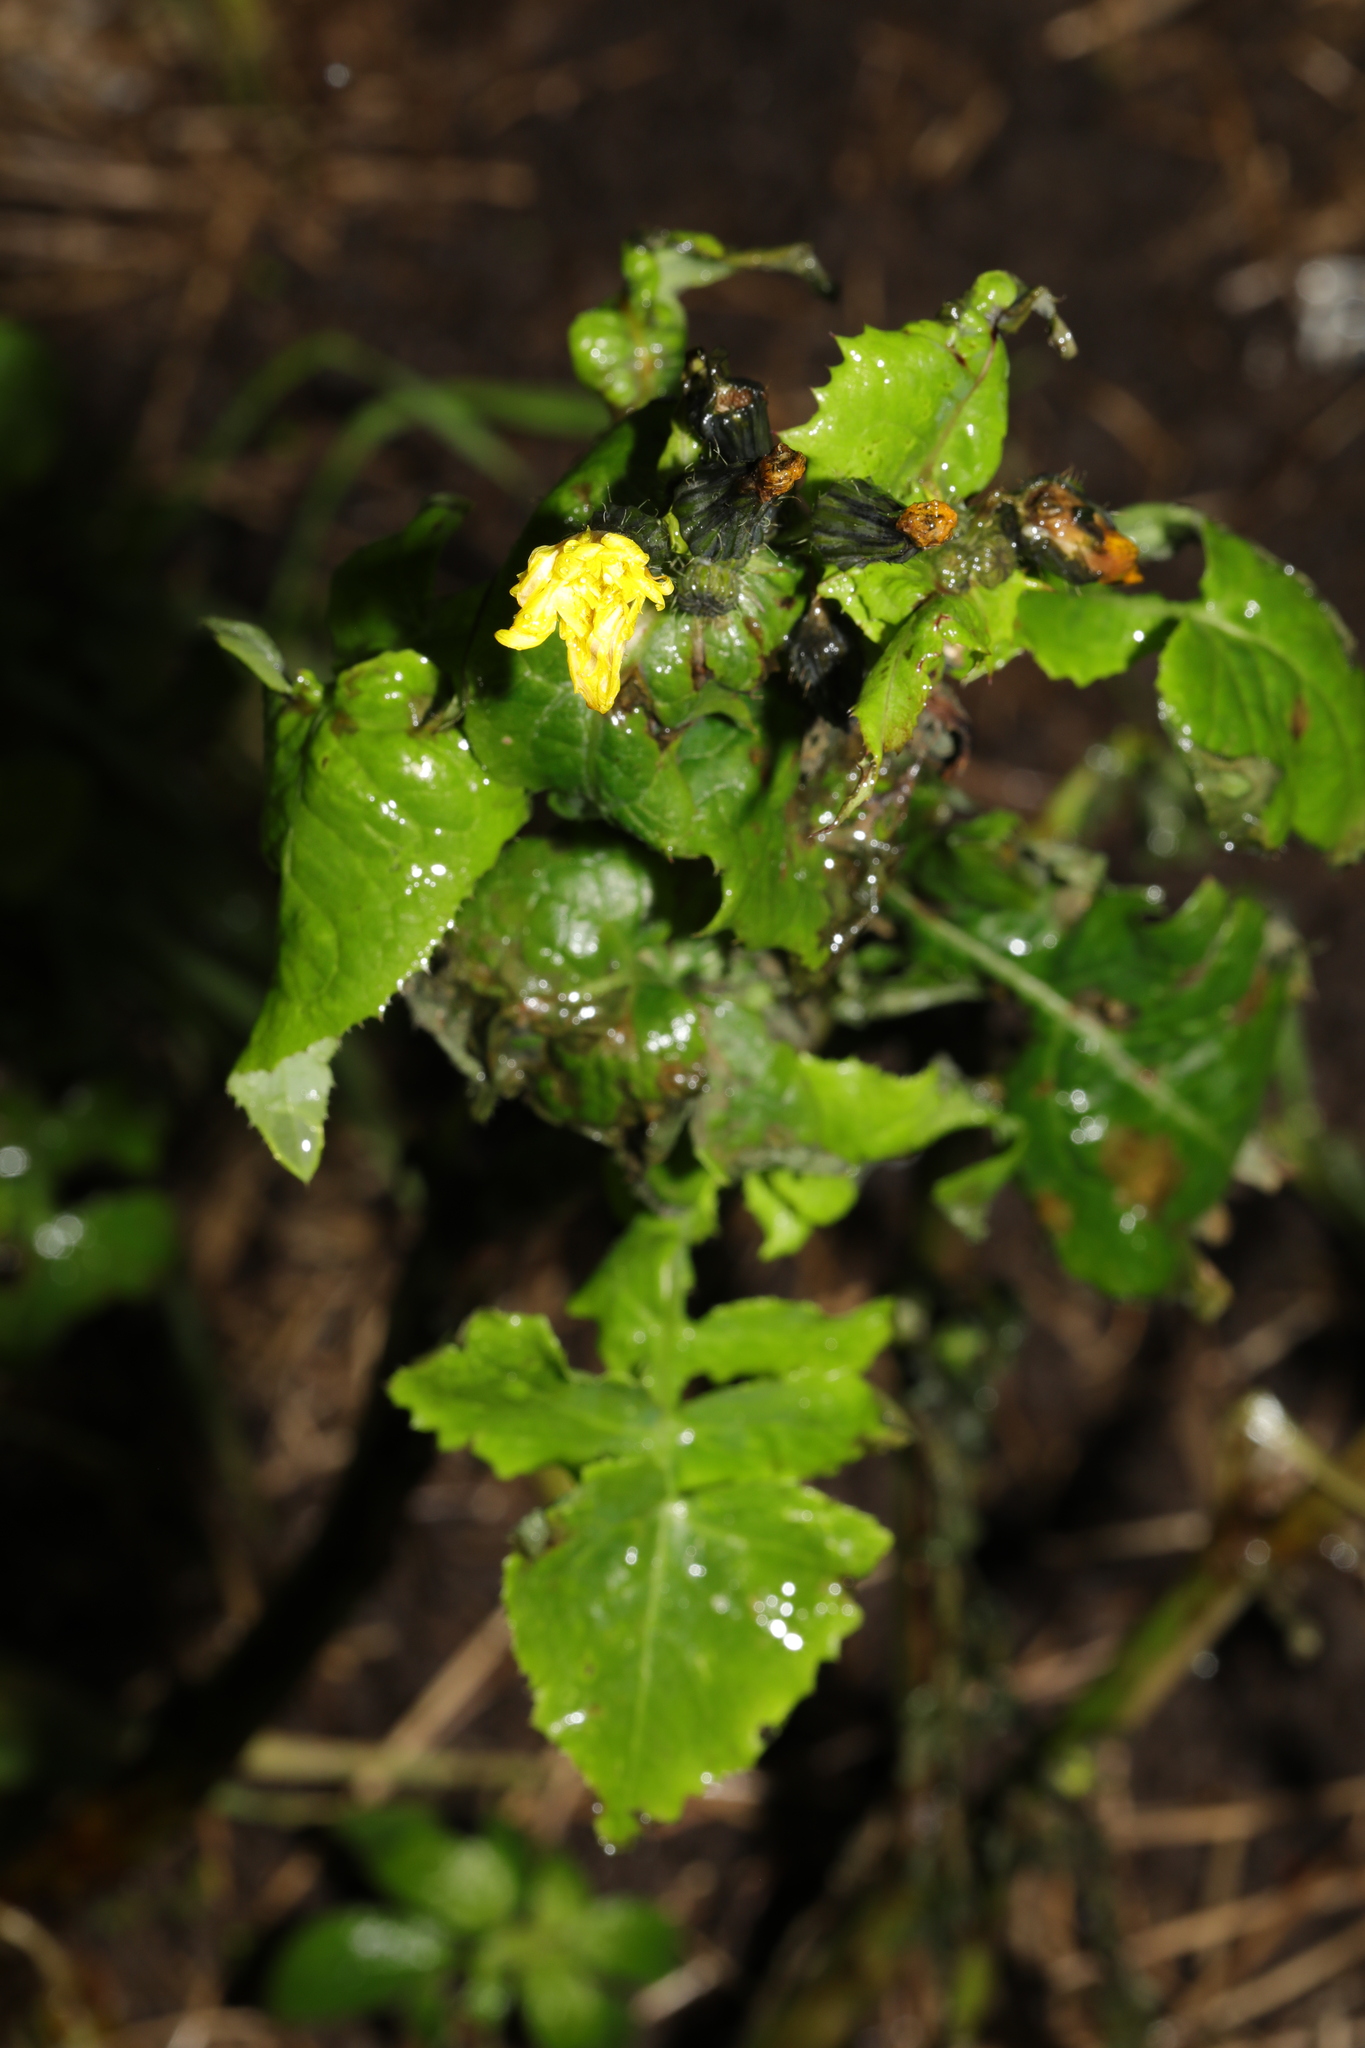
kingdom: Plantae
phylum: Tracheophyta
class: Magnoliopsida
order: Asterales
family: Asteraceae
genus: Sonchus
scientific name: Sonchus oleraceus
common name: Common sowthistle
